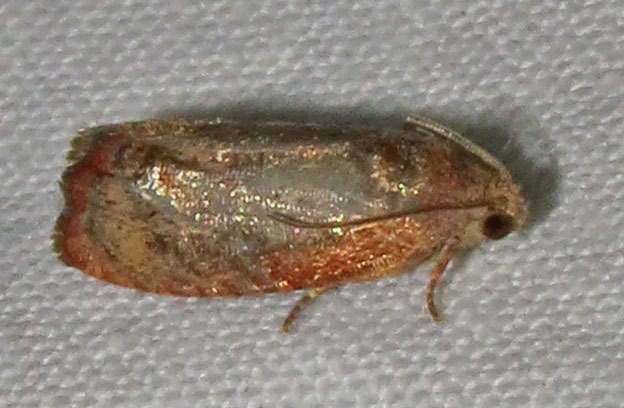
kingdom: Animalia
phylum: Arthropoda
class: Insecta
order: Lepidoptera
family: Tortricidae
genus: Cydia
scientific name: Cydia latiferreana
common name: Filbertworm moth
